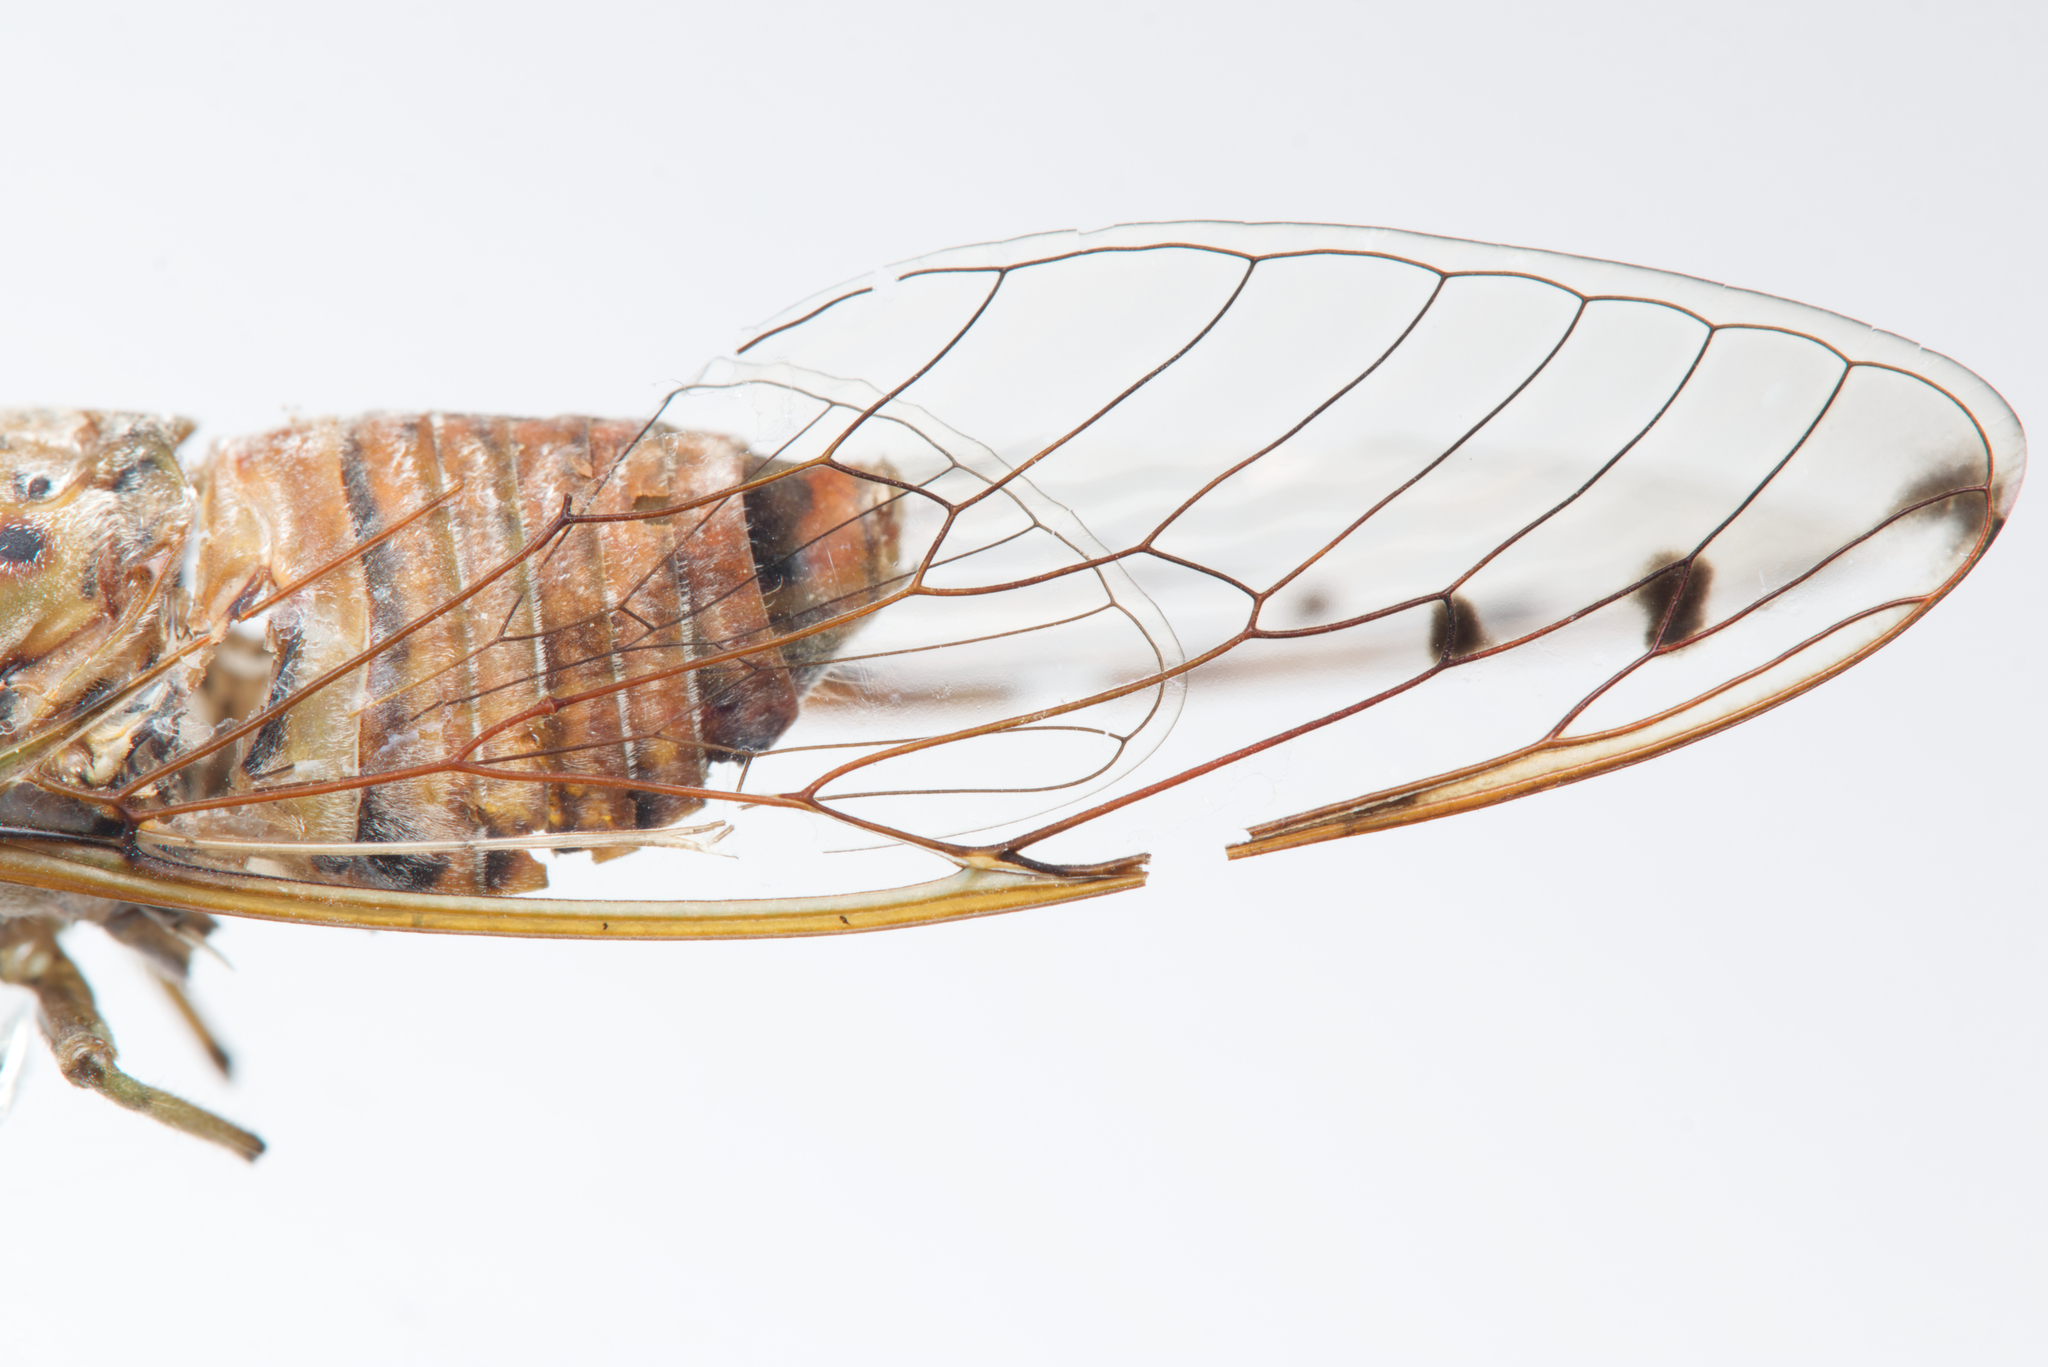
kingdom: Animalia
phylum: Arthropoda
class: Insecta
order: Hemiptera
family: Cicadidae
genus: Tamasa
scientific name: Tamasa tristigma
